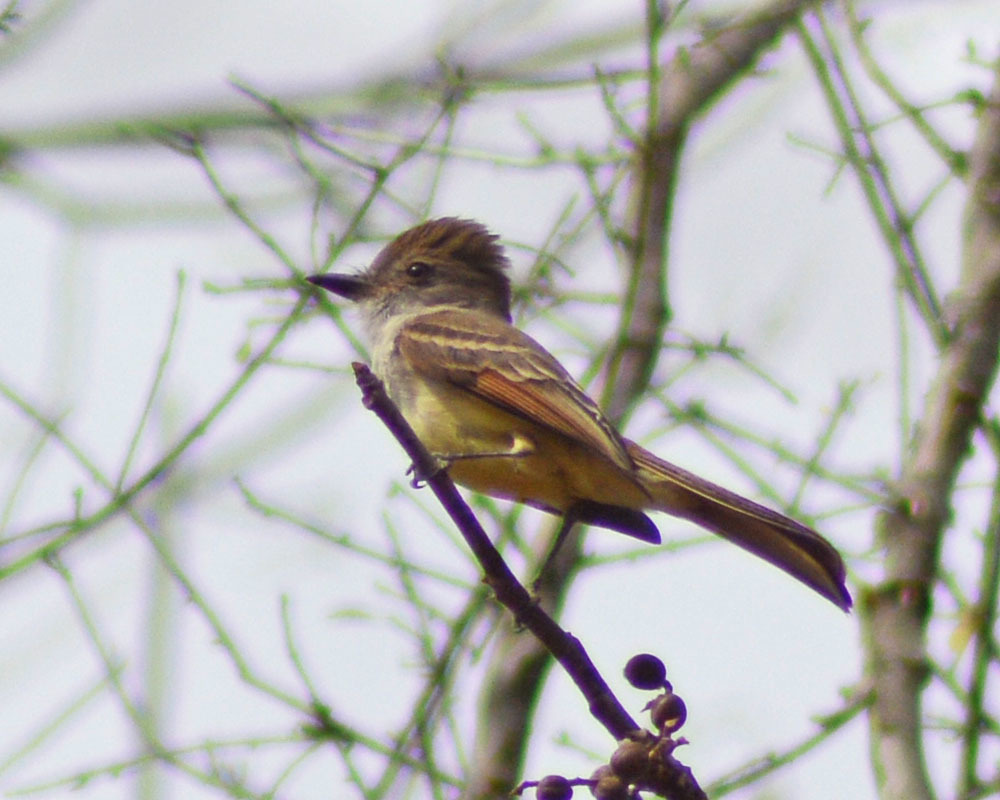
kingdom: Animalia
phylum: Chordata
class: Aves
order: Passeriformes
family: Tyrannidae
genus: Myiarchus
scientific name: Myiarchus nuttingi
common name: Nutting's flycatcher
